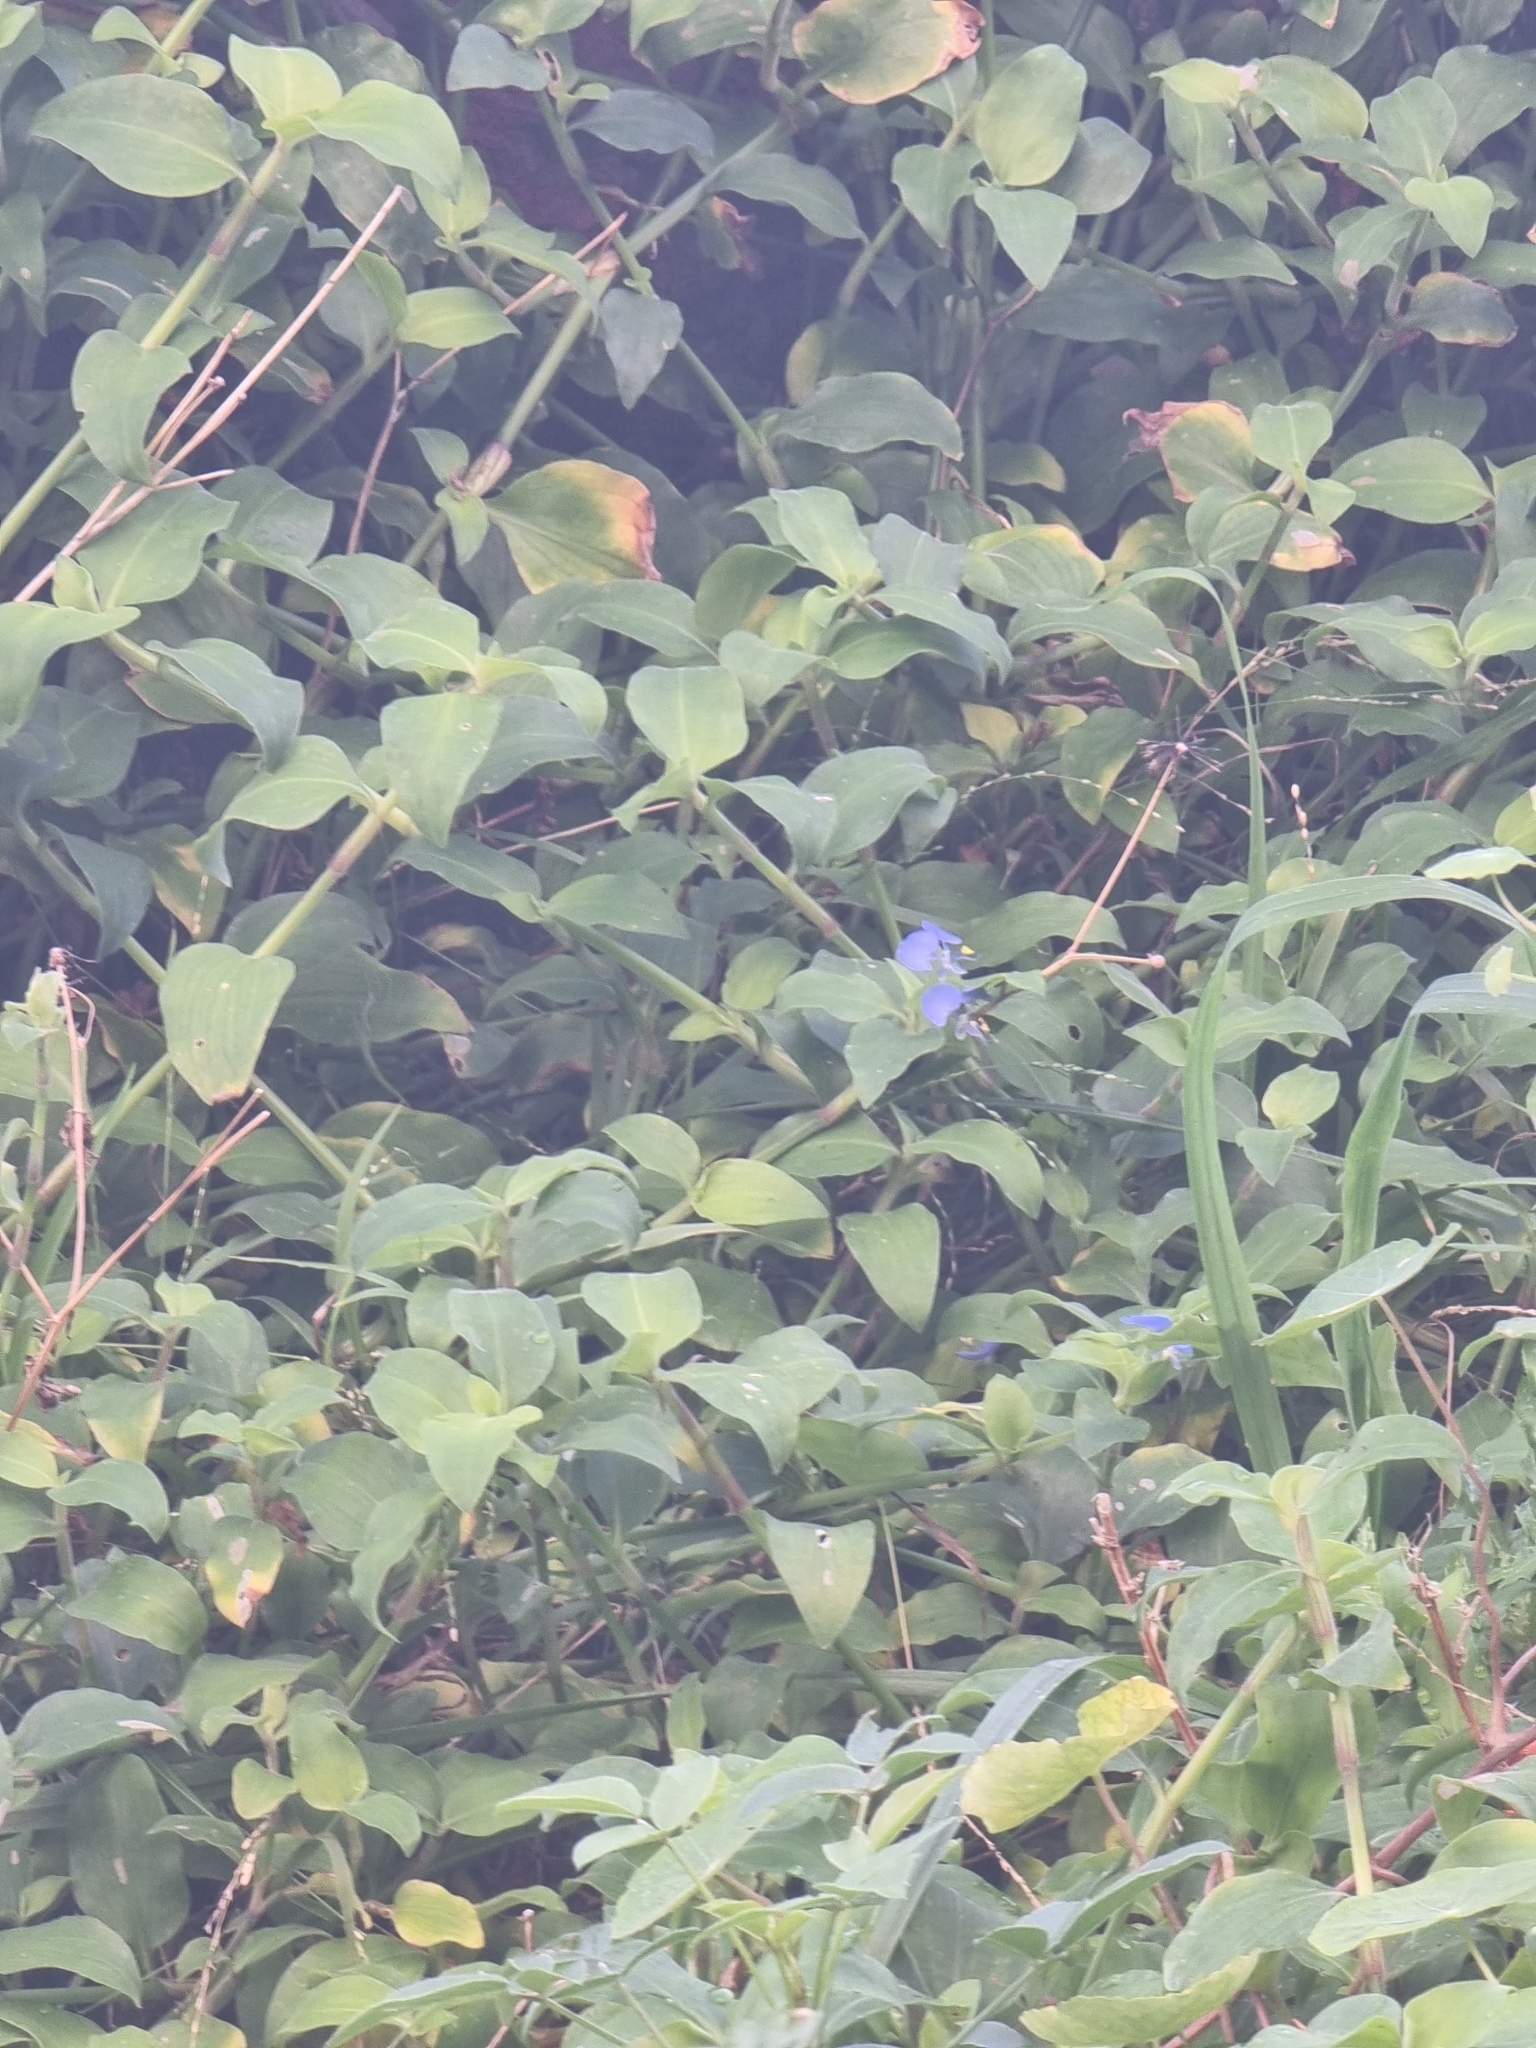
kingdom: Plantae
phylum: Tracheophyta
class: Liliopsida
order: Commelinales
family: Commelinaceae
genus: Commelina
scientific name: Commelina diffusa
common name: Climbing dayflower
